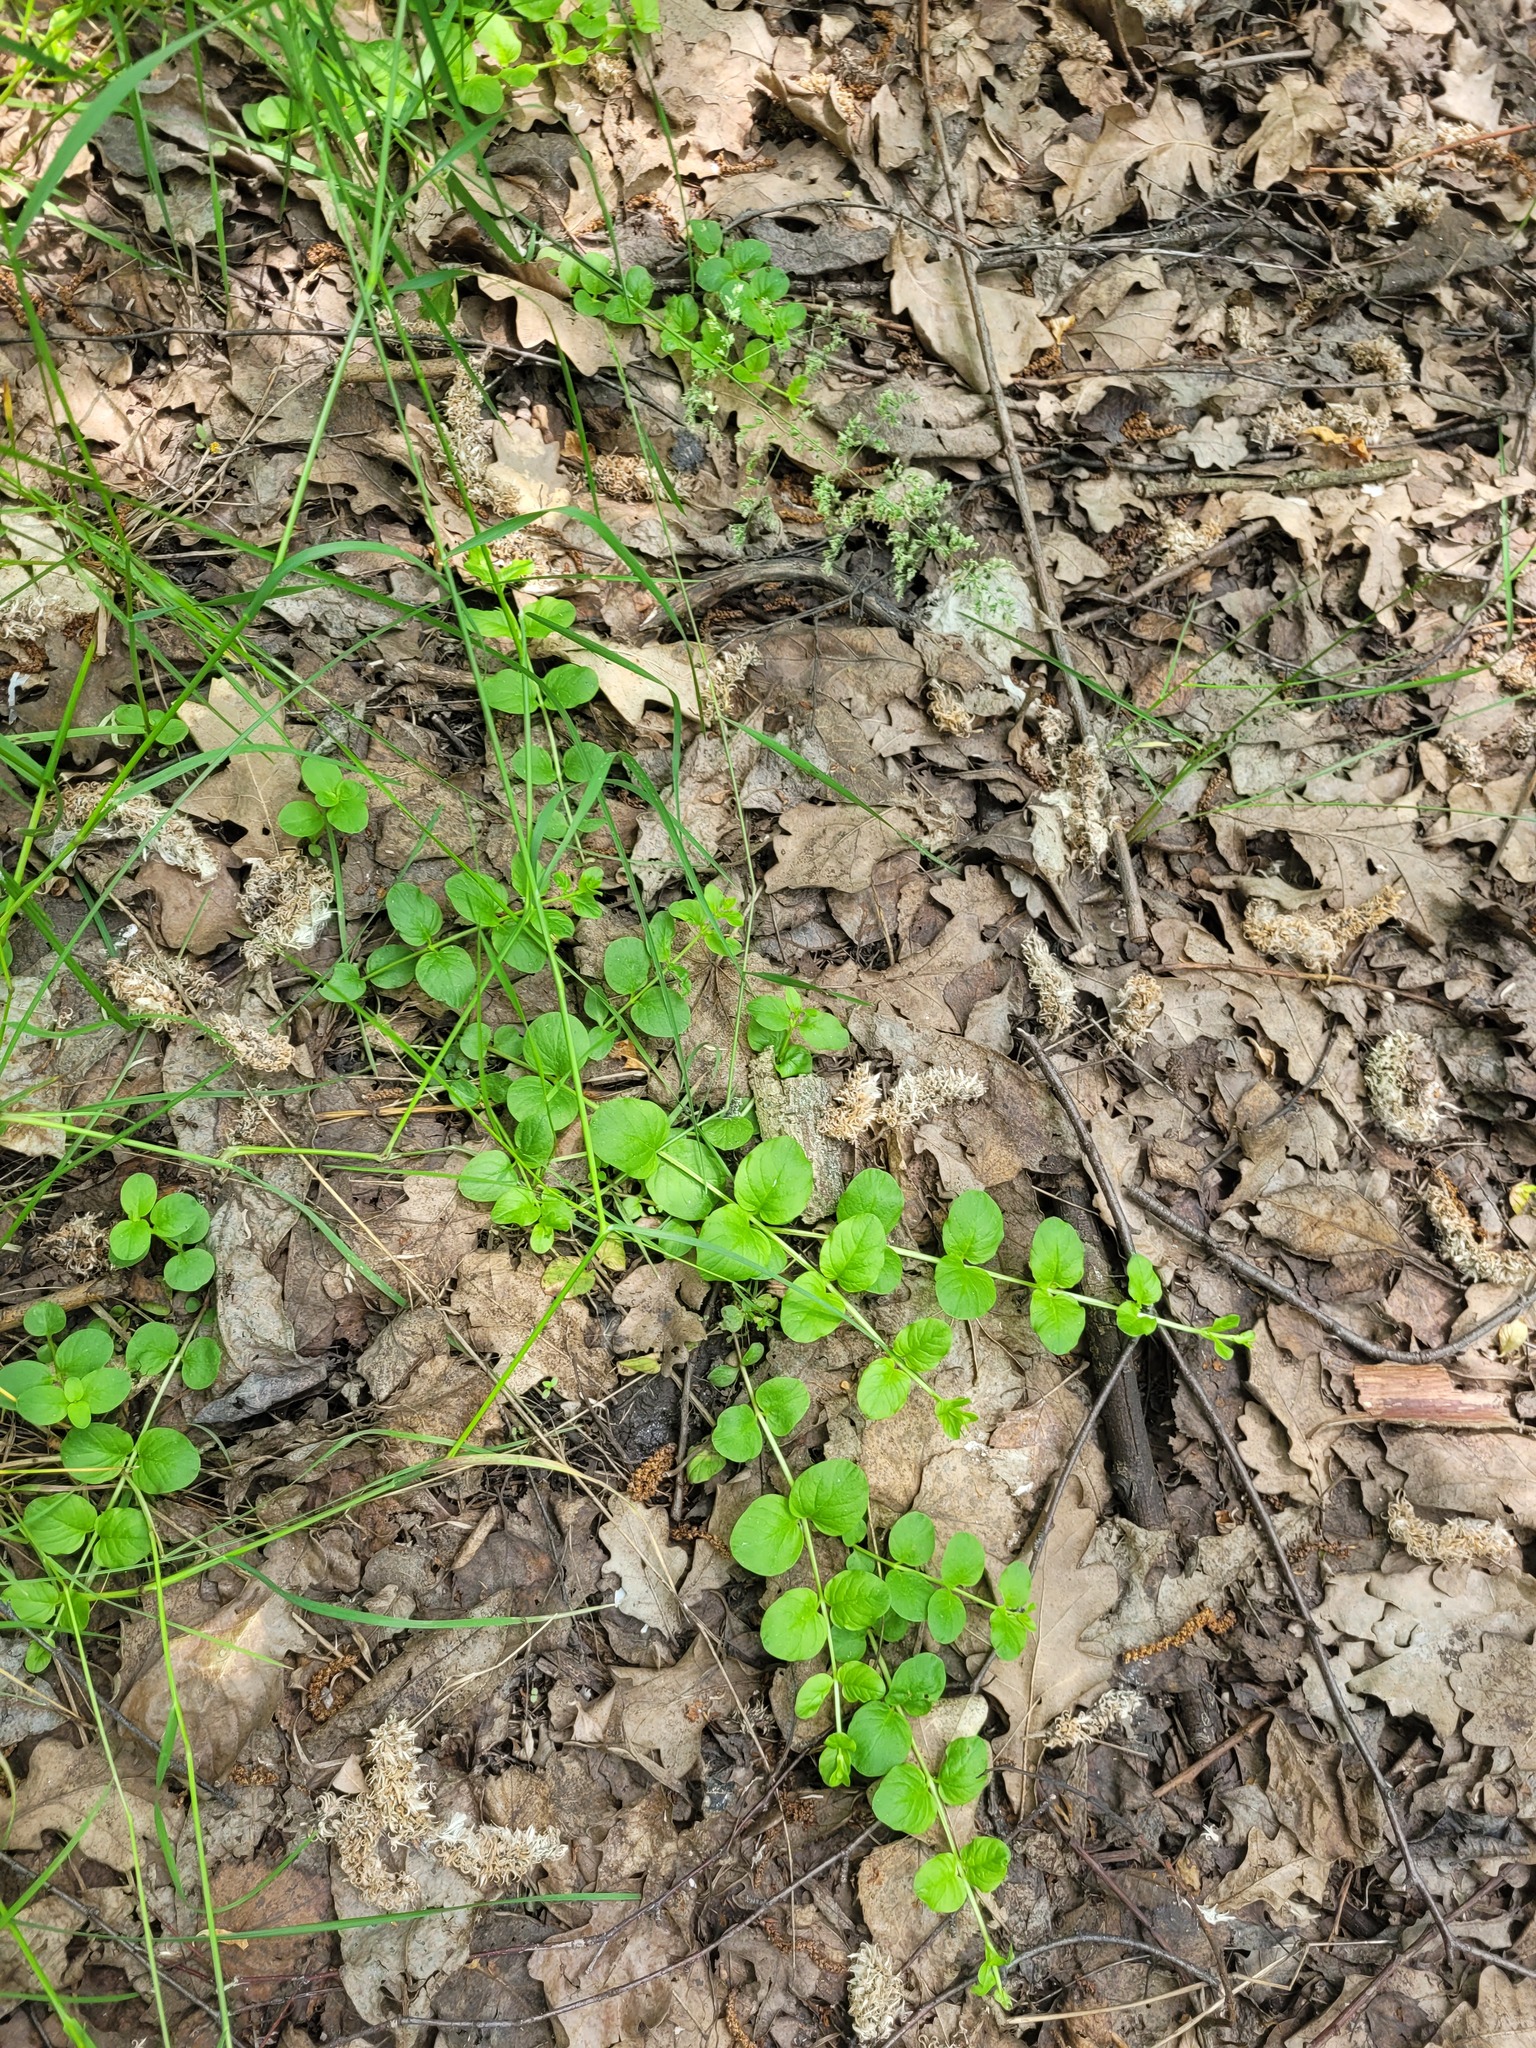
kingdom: Plantae
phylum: Tracheophyta
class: Magnoliopsida
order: Ericales
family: Primulaceae
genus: Lysimachia
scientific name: Lysimachia nummularia
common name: Moneywort
